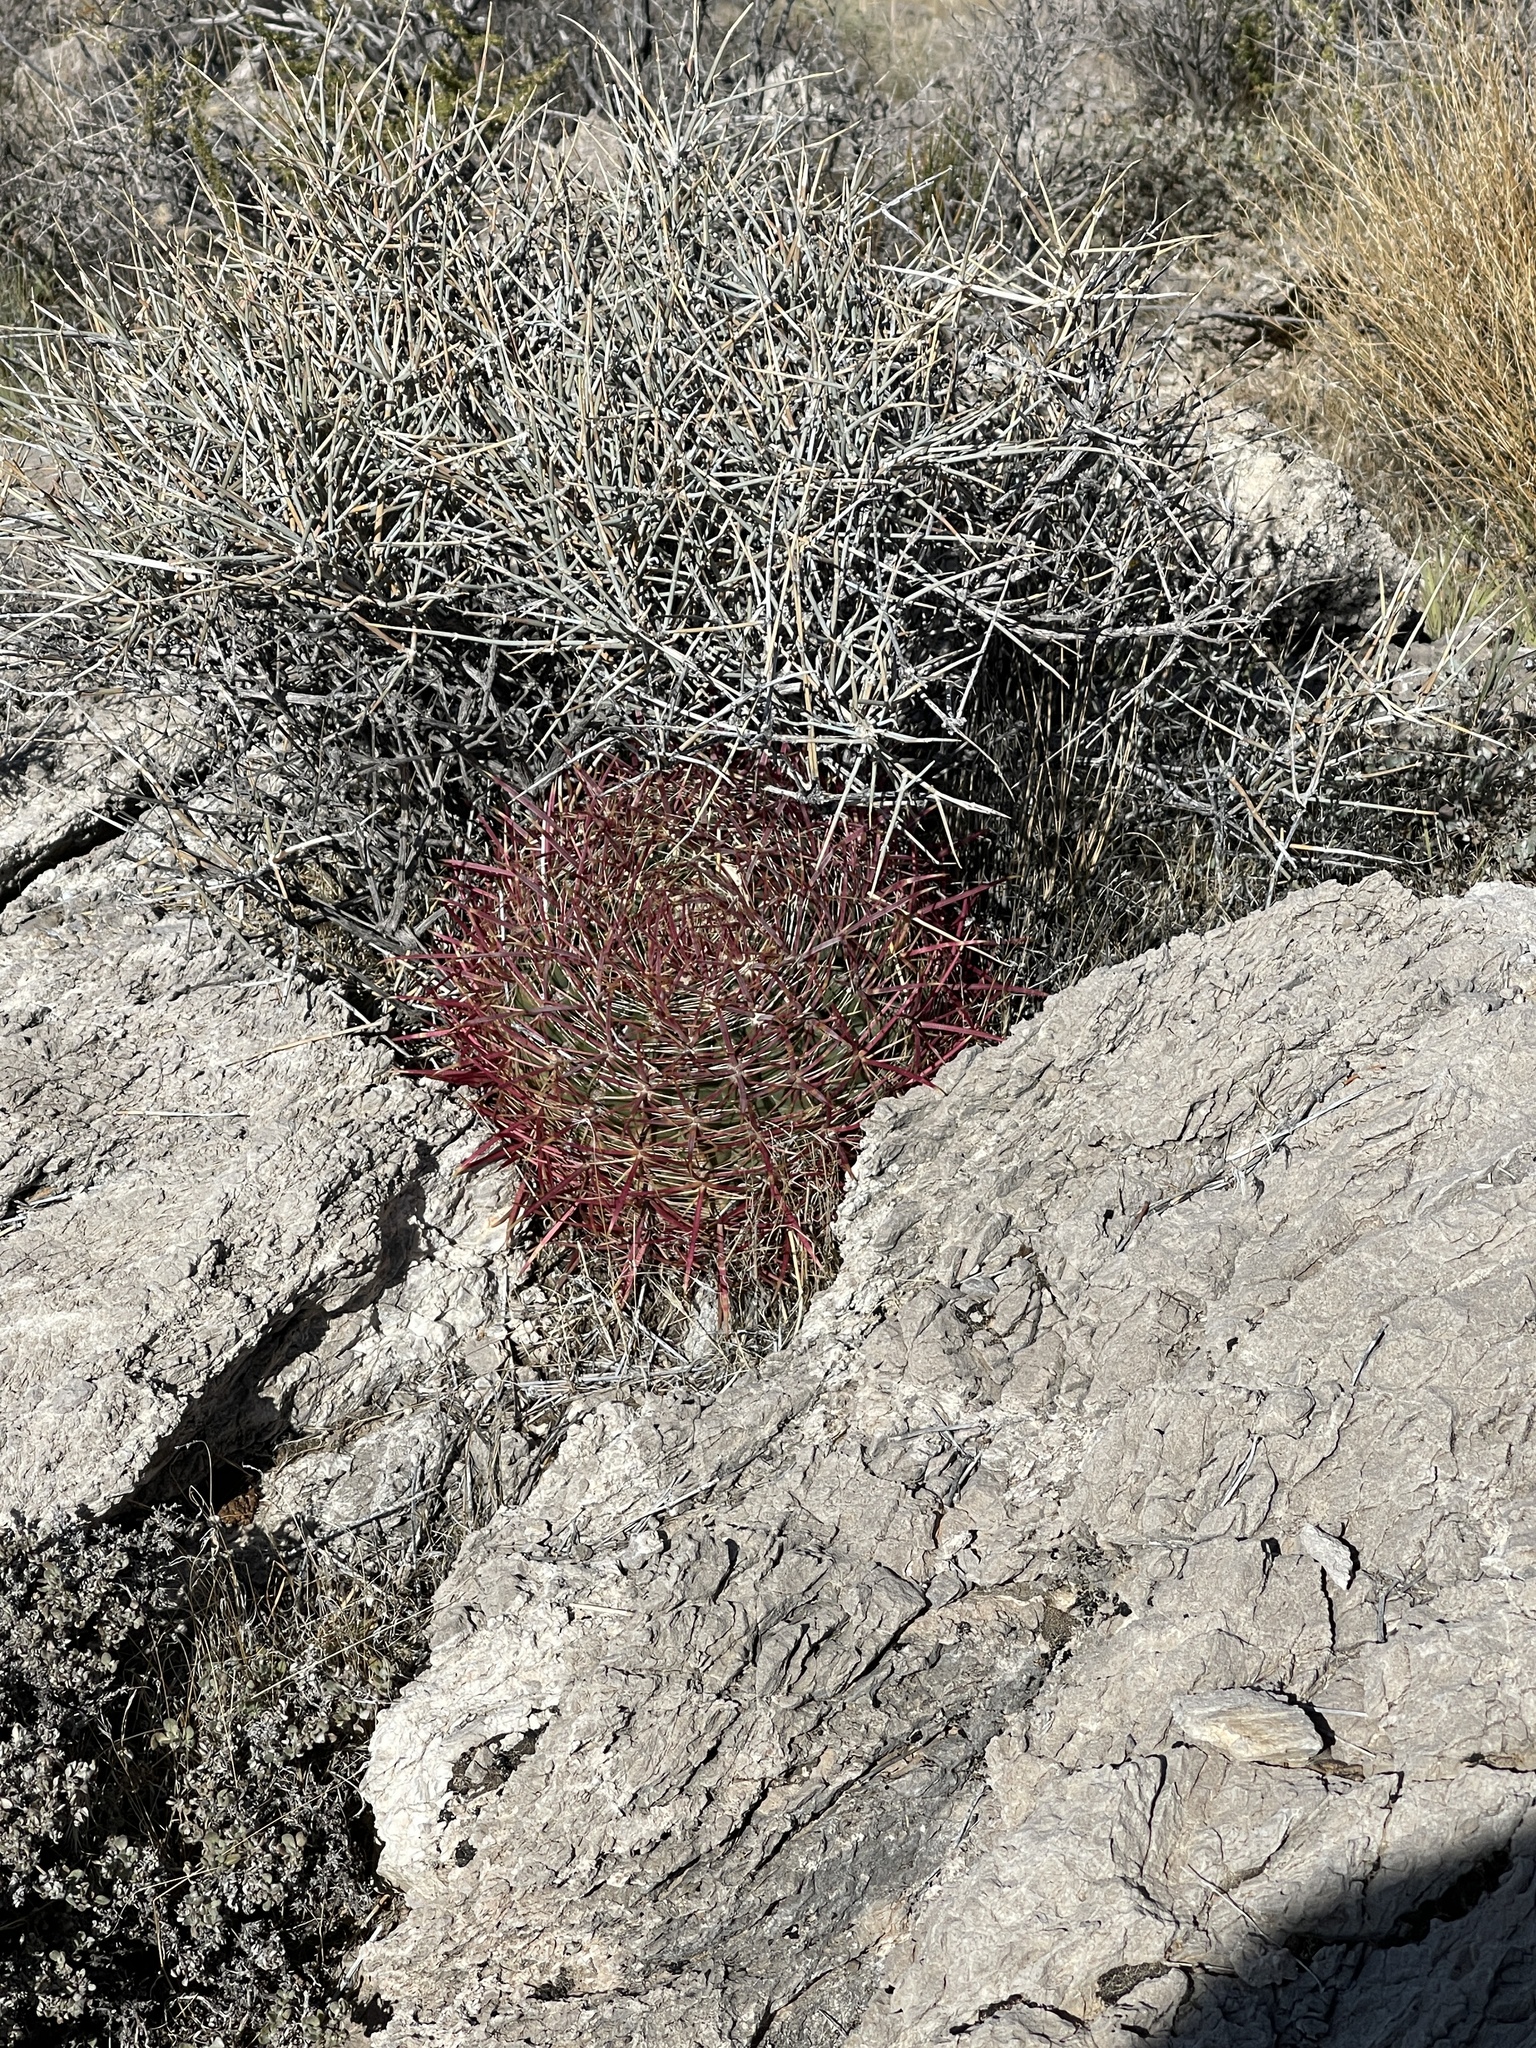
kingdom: Plantae
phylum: Tracheophyta
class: Magnoliopsida
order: Caryophyllales
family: Cactaceae
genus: Ferocactus
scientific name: Ferocactus cylindraceus
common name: California barrel cactus
